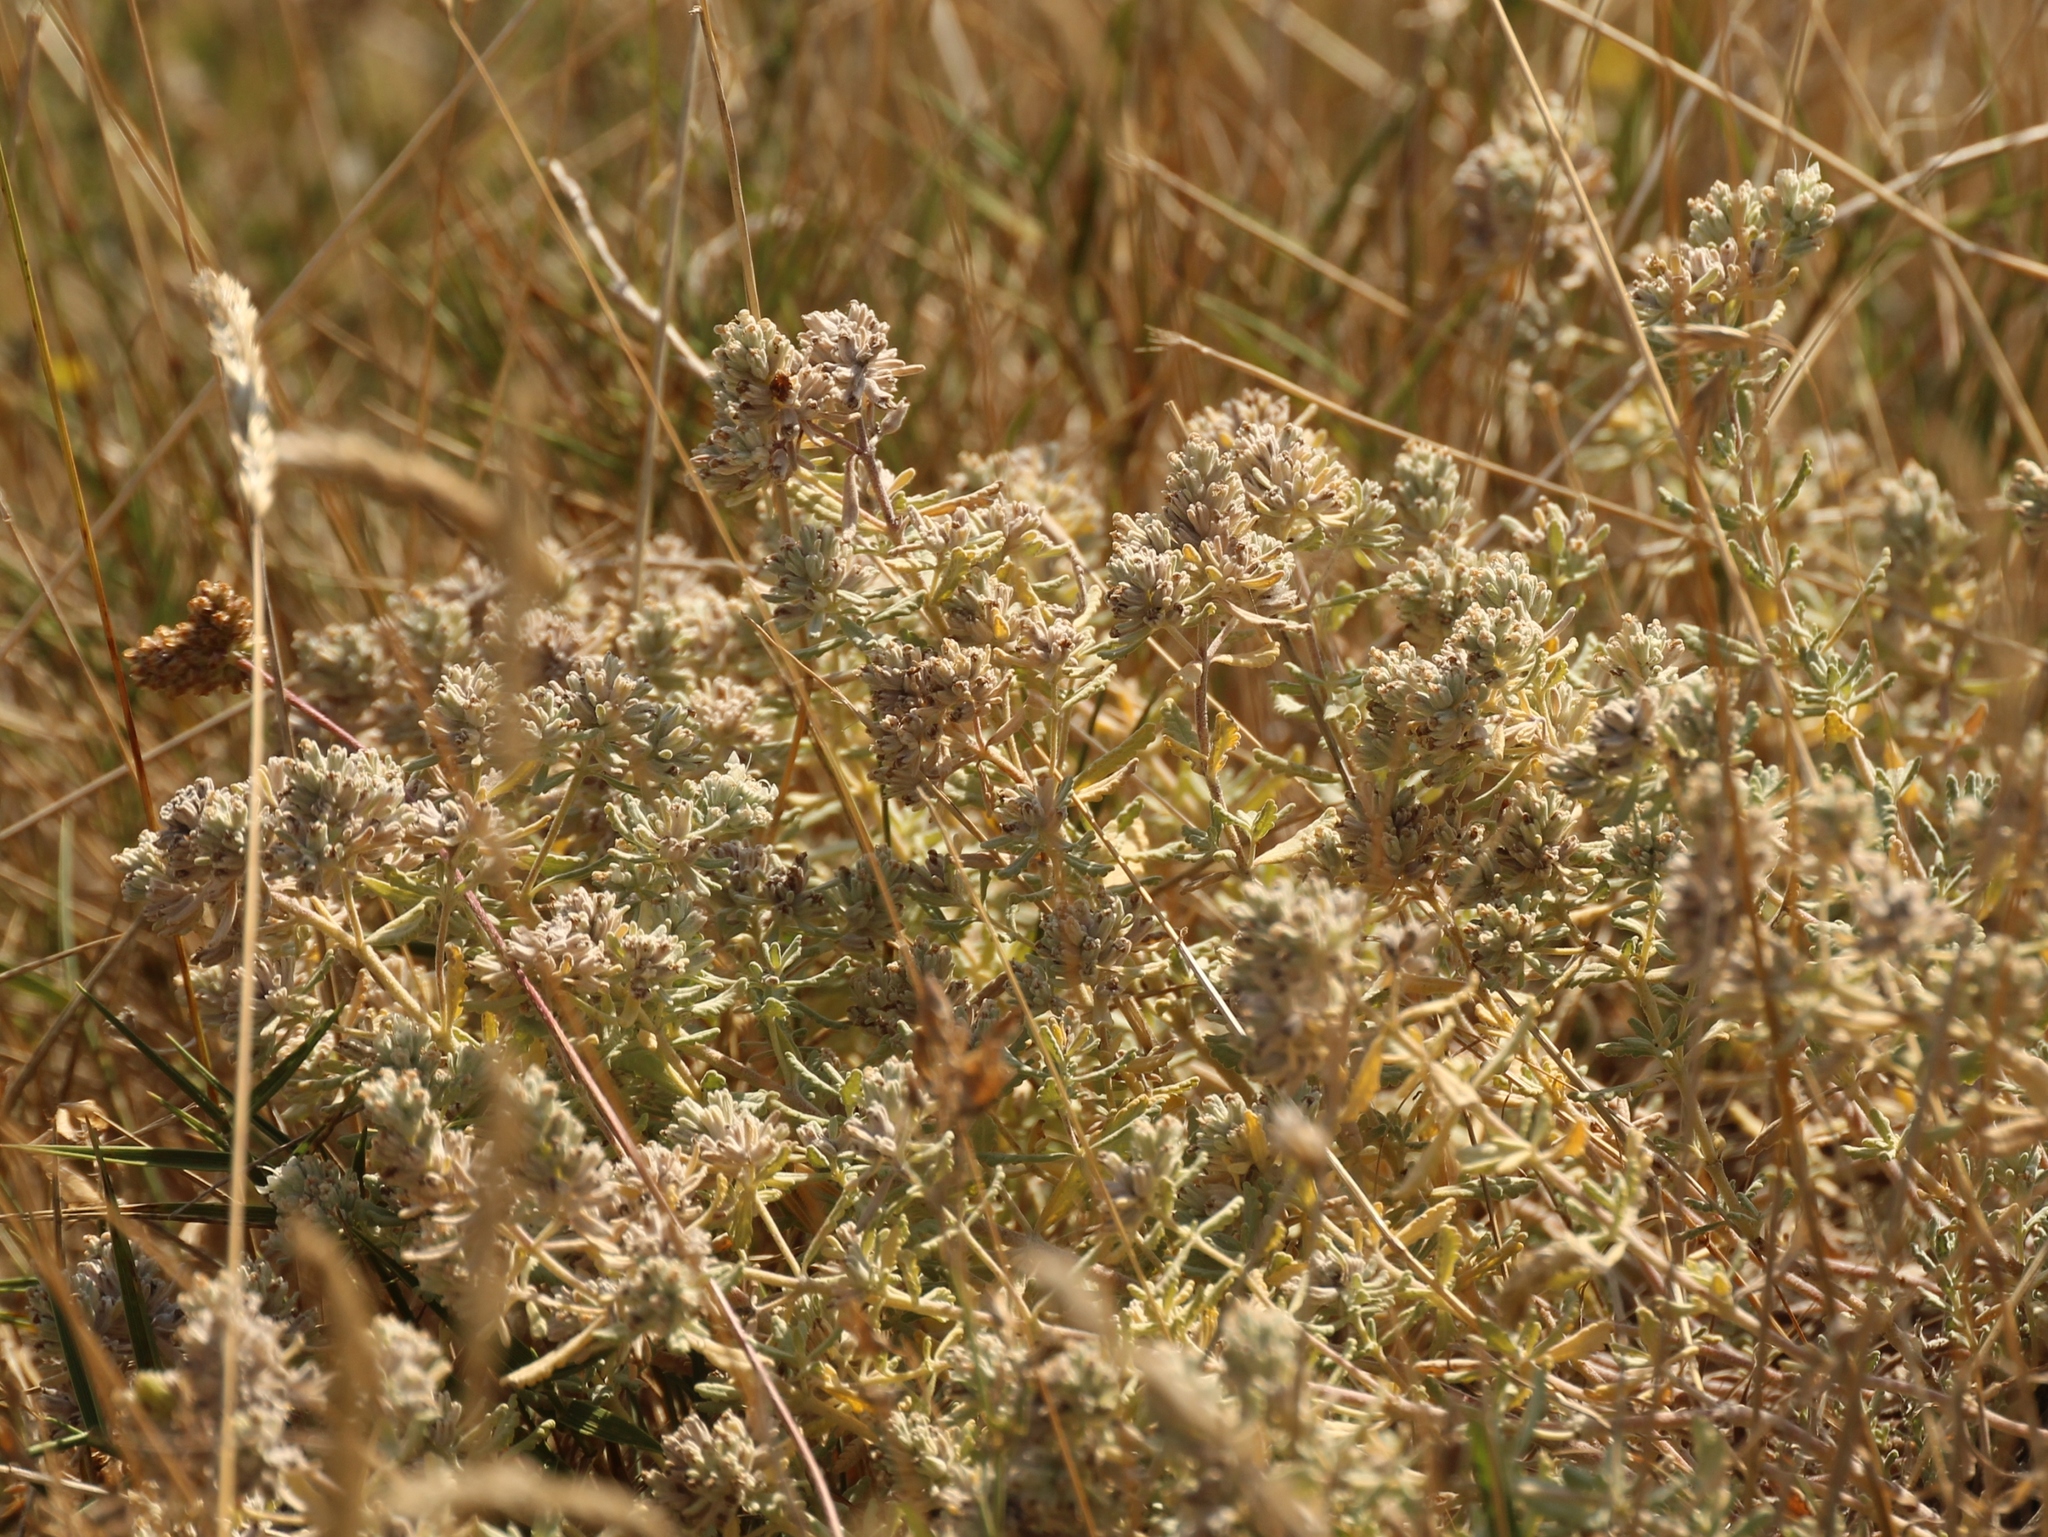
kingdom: Plantae
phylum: Tracheophyta
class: Magnoliopsida
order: Lamiales
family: Lamiaceae
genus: Teucrium
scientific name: Teucrium polium
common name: Poley
